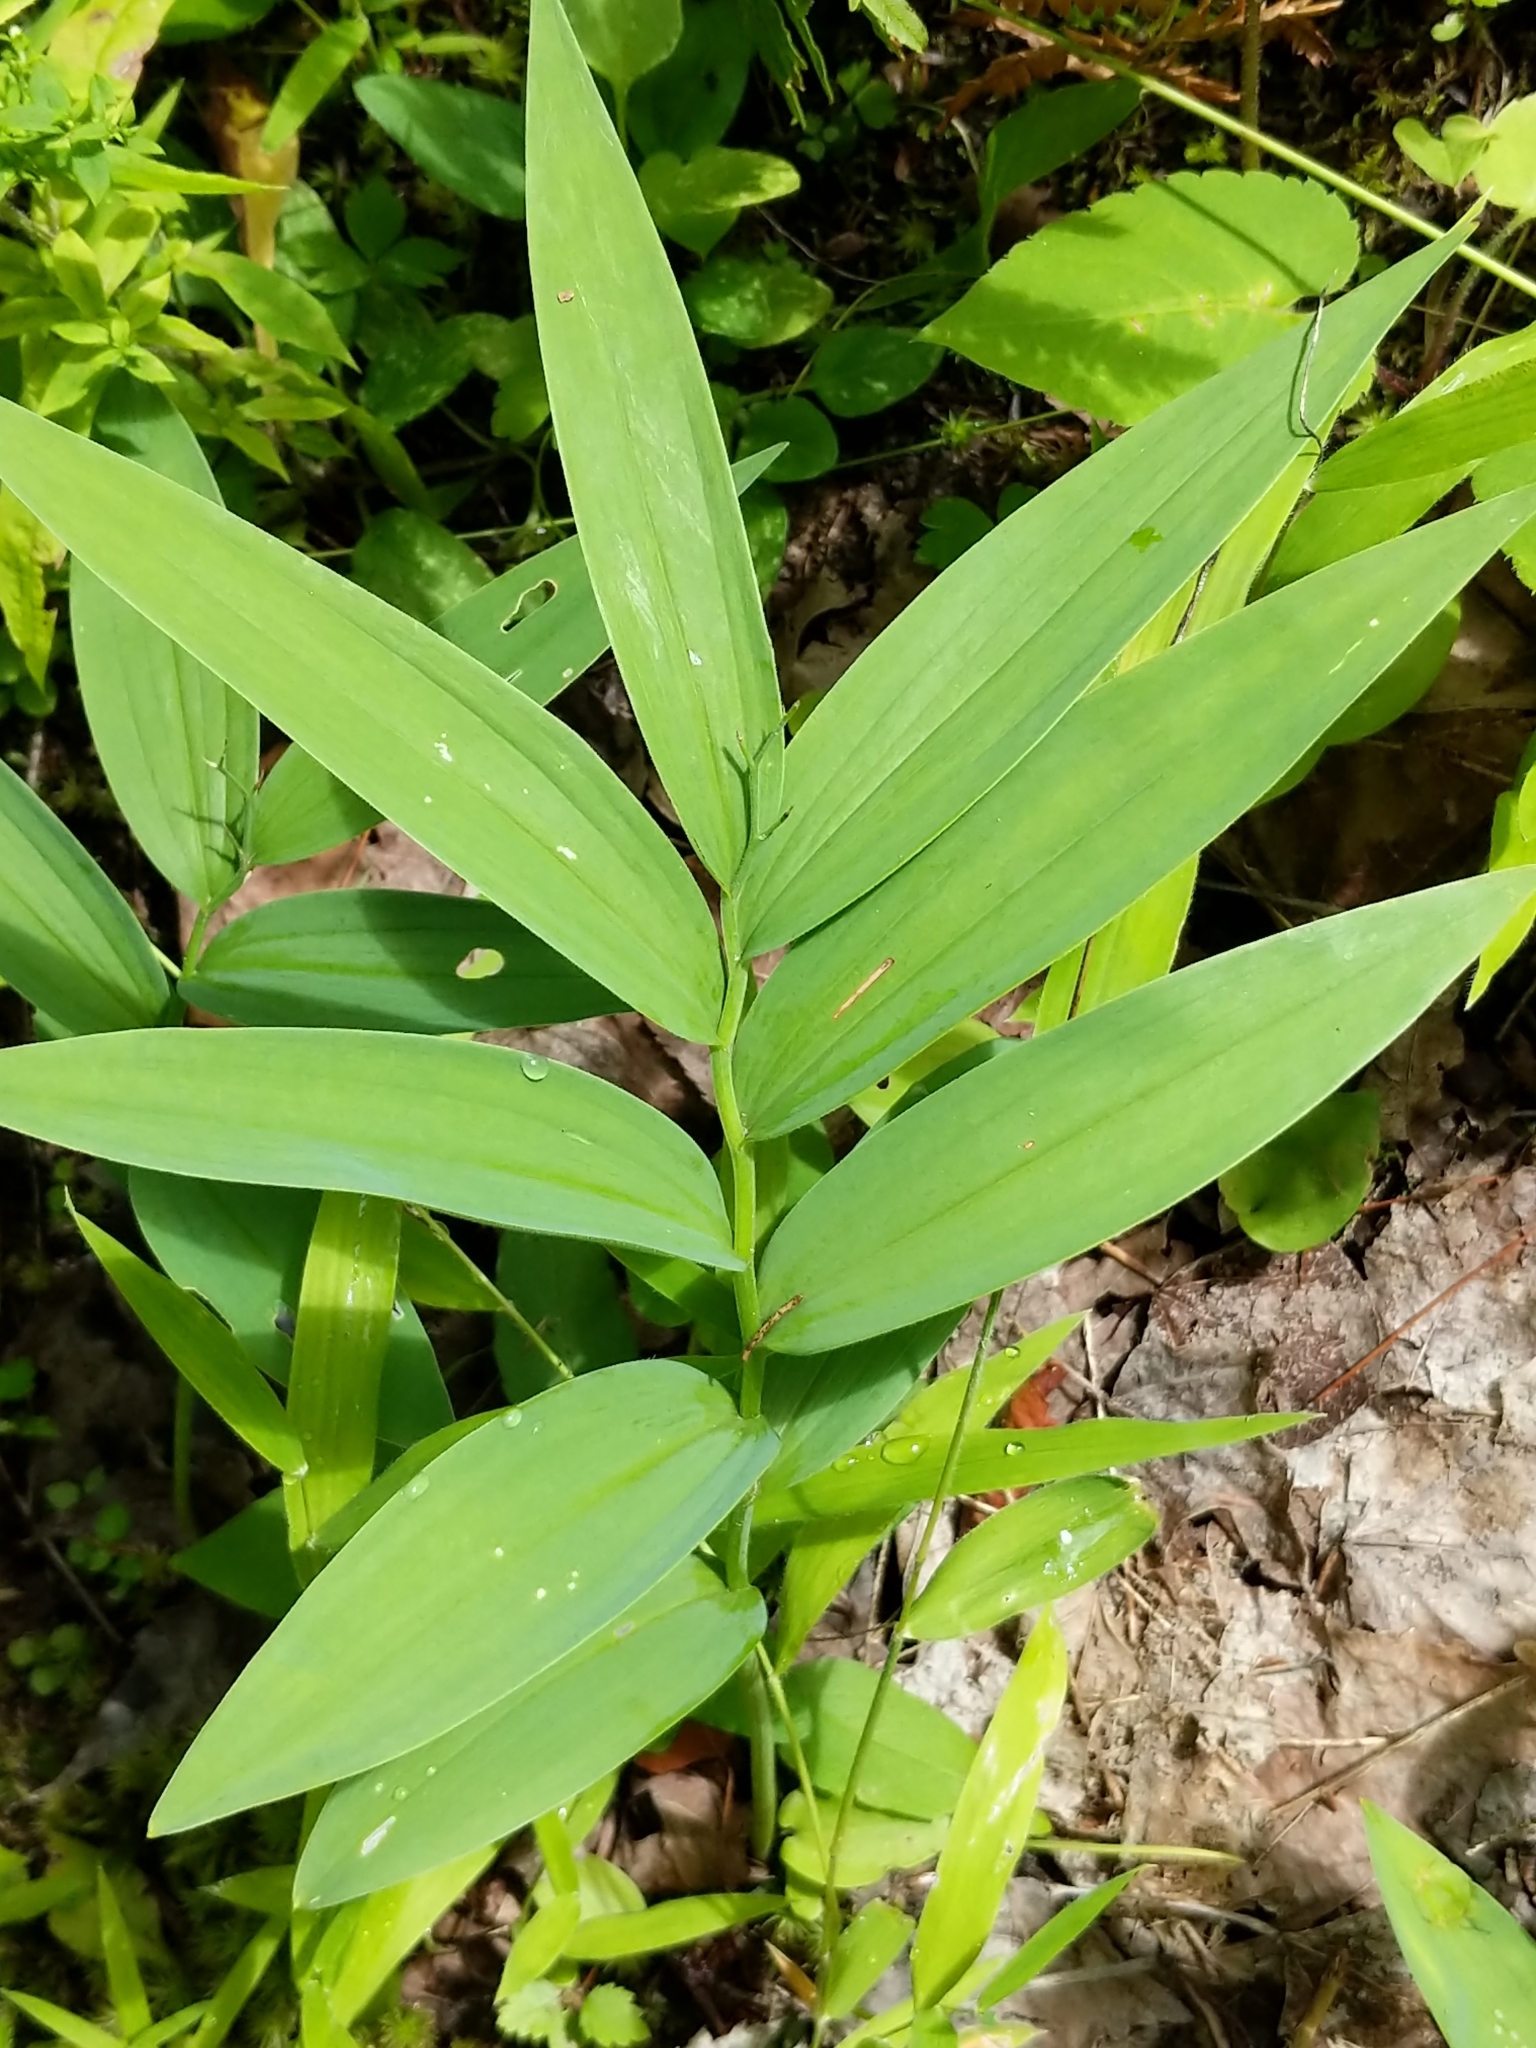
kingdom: Plantae
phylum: Tracheophyta
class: Liliopsida
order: Asparagales
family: Asparagaceae
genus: Maianthemum
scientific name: Maianthemum stellatum
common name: Little false solomon's seal
